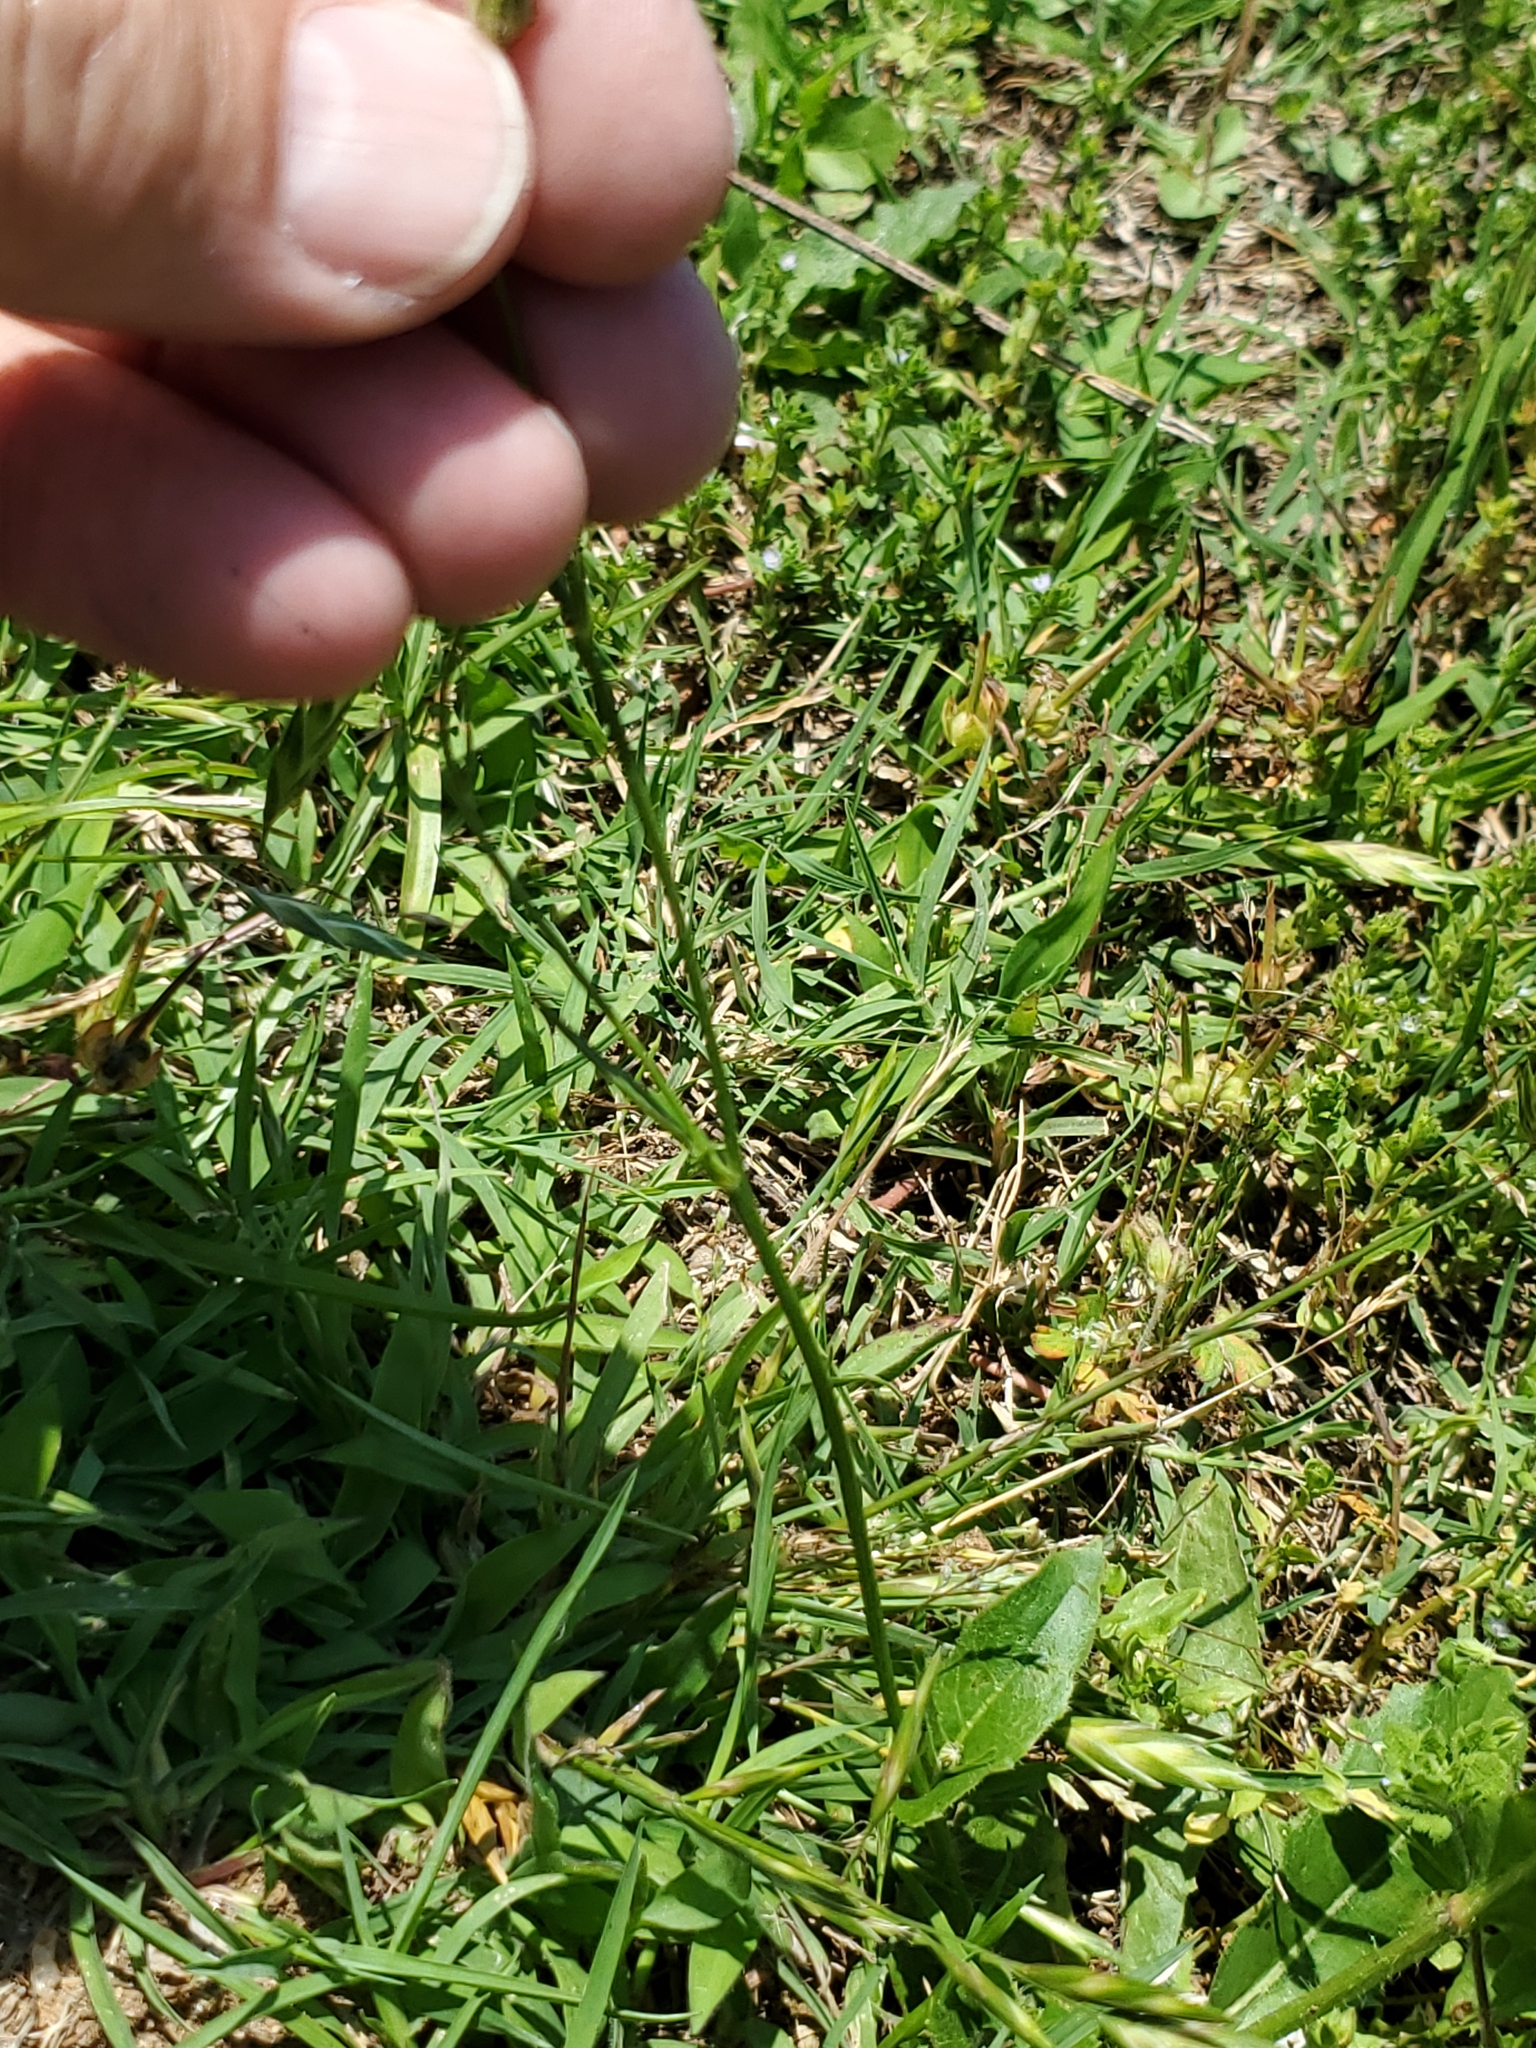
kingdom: Plantae
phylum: Tracheophyta
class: Magnoliopsida
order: Asterales
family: Asteraceae
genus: Hypochaeris
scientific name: Hypochaeris chillensis
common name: Brazilian cat's ear
